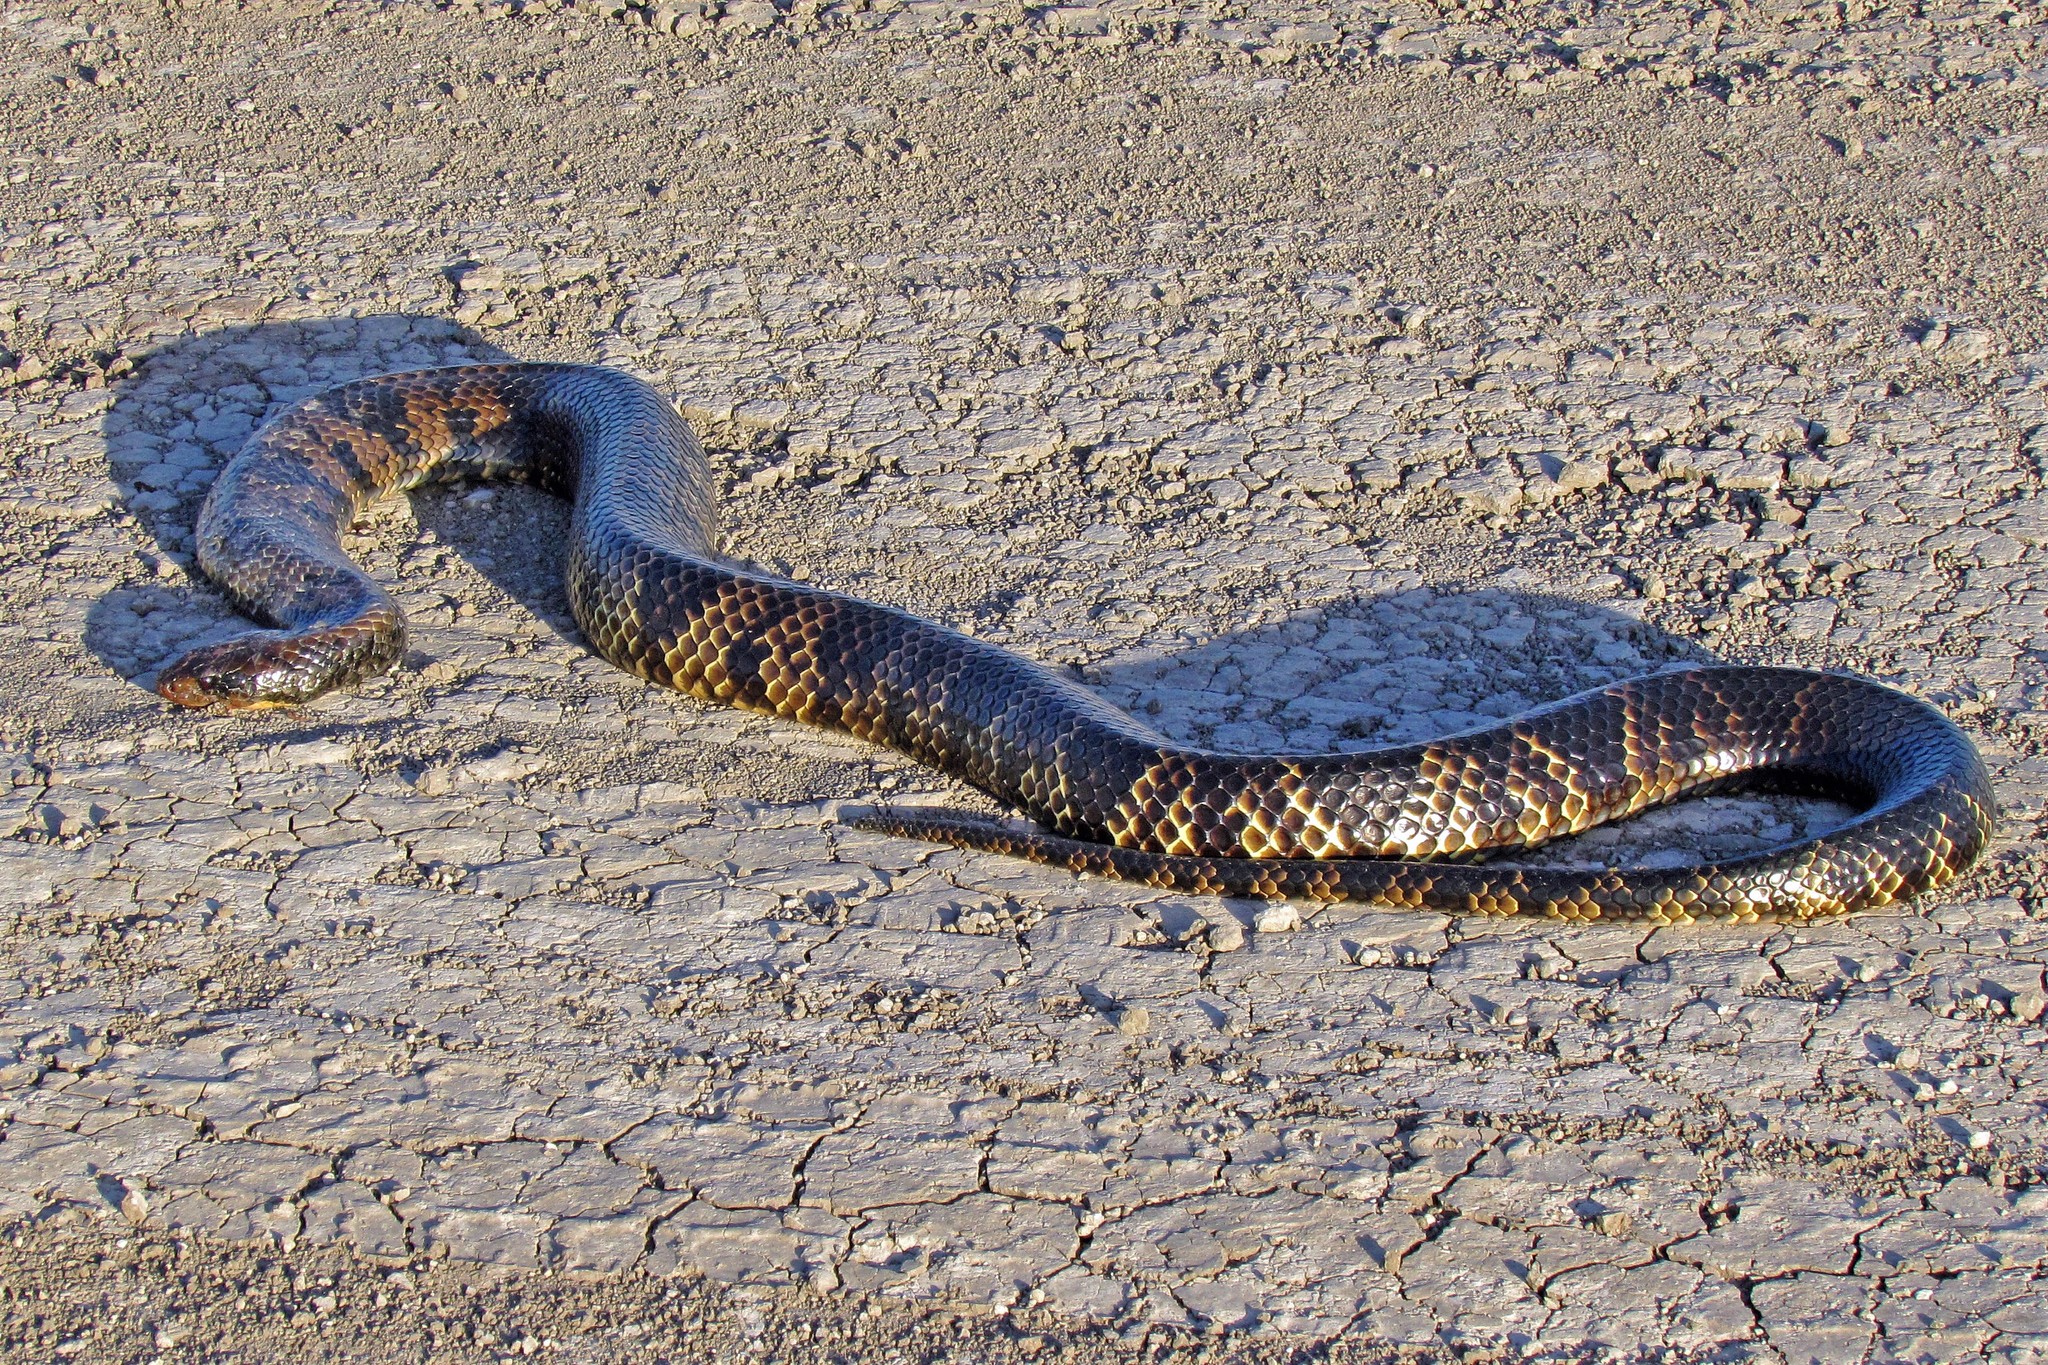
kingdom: Animalia
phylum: Chordata
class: Squamata
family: Colubridae
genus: Hydrodynastes
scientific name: Hydrodynastes gigas
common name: False water cobra
